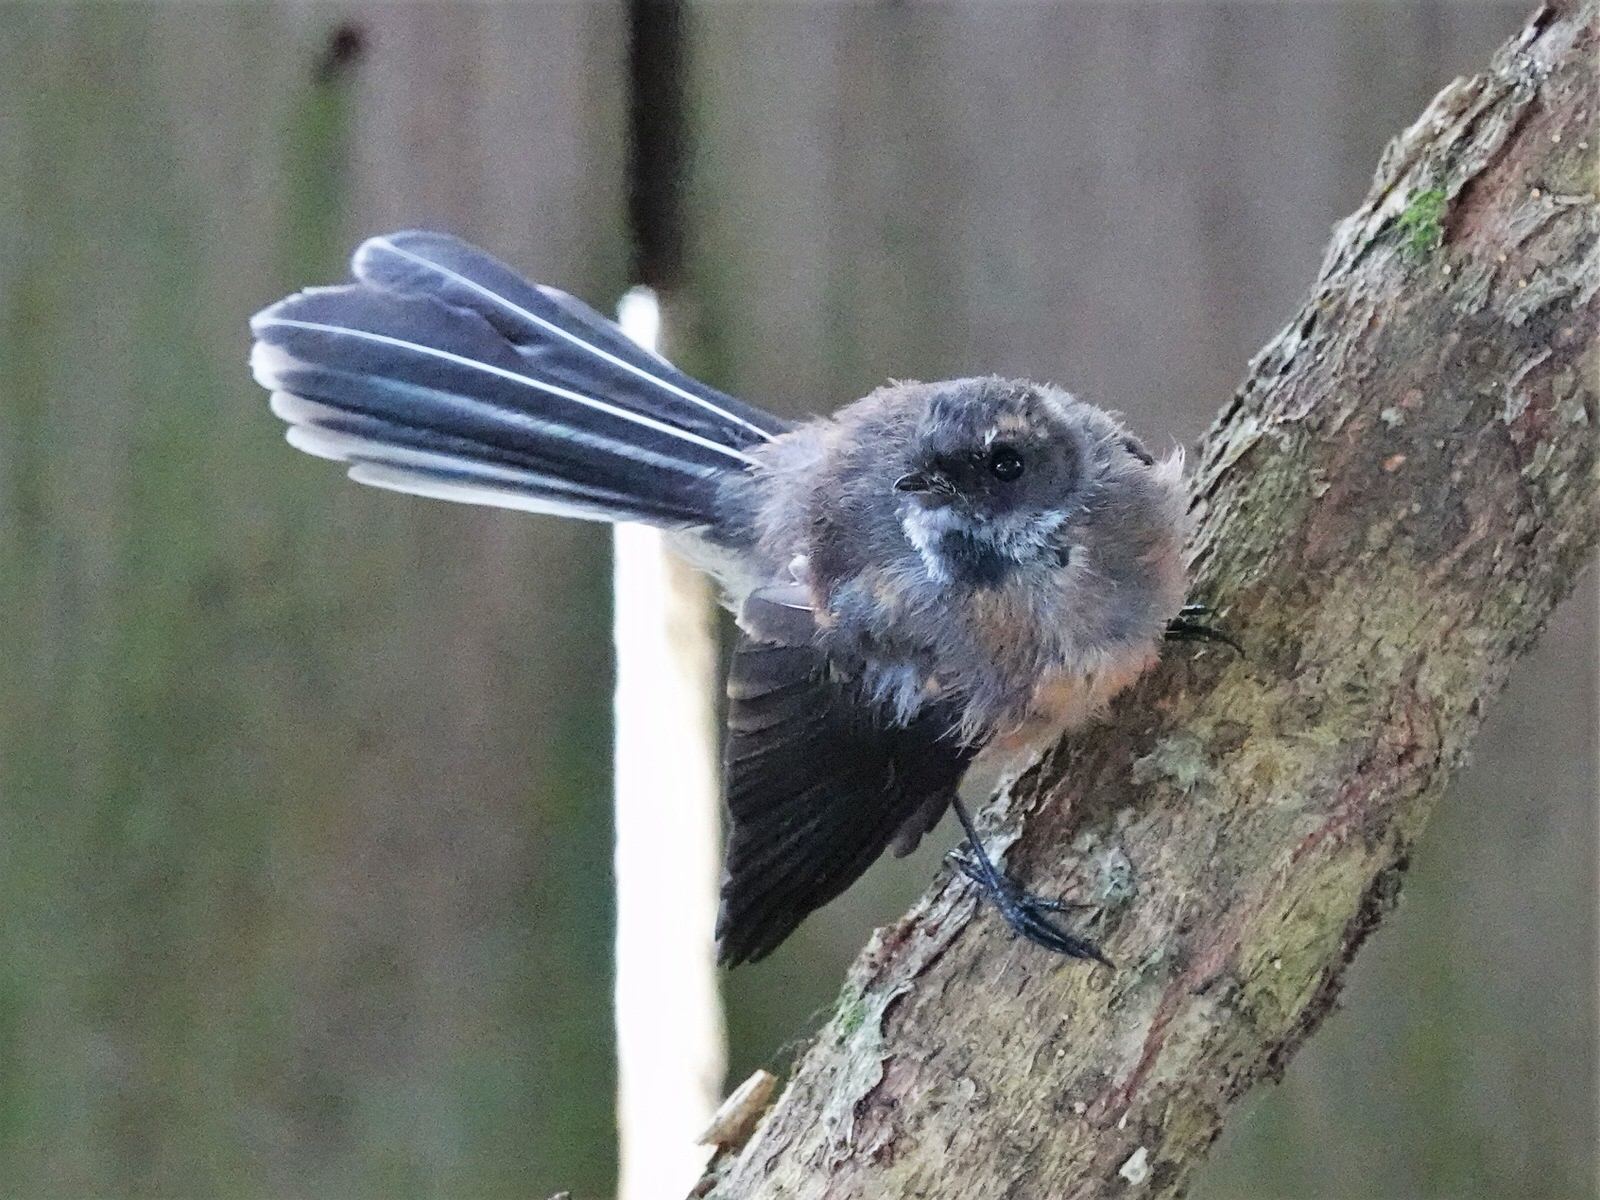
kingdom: Animalia
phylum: Chordata
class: Aves
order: Passeriformes
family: Rhipiduridae
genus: Rhipidura
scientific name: Rhipidura fuliginosa
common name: New zealand fantail
